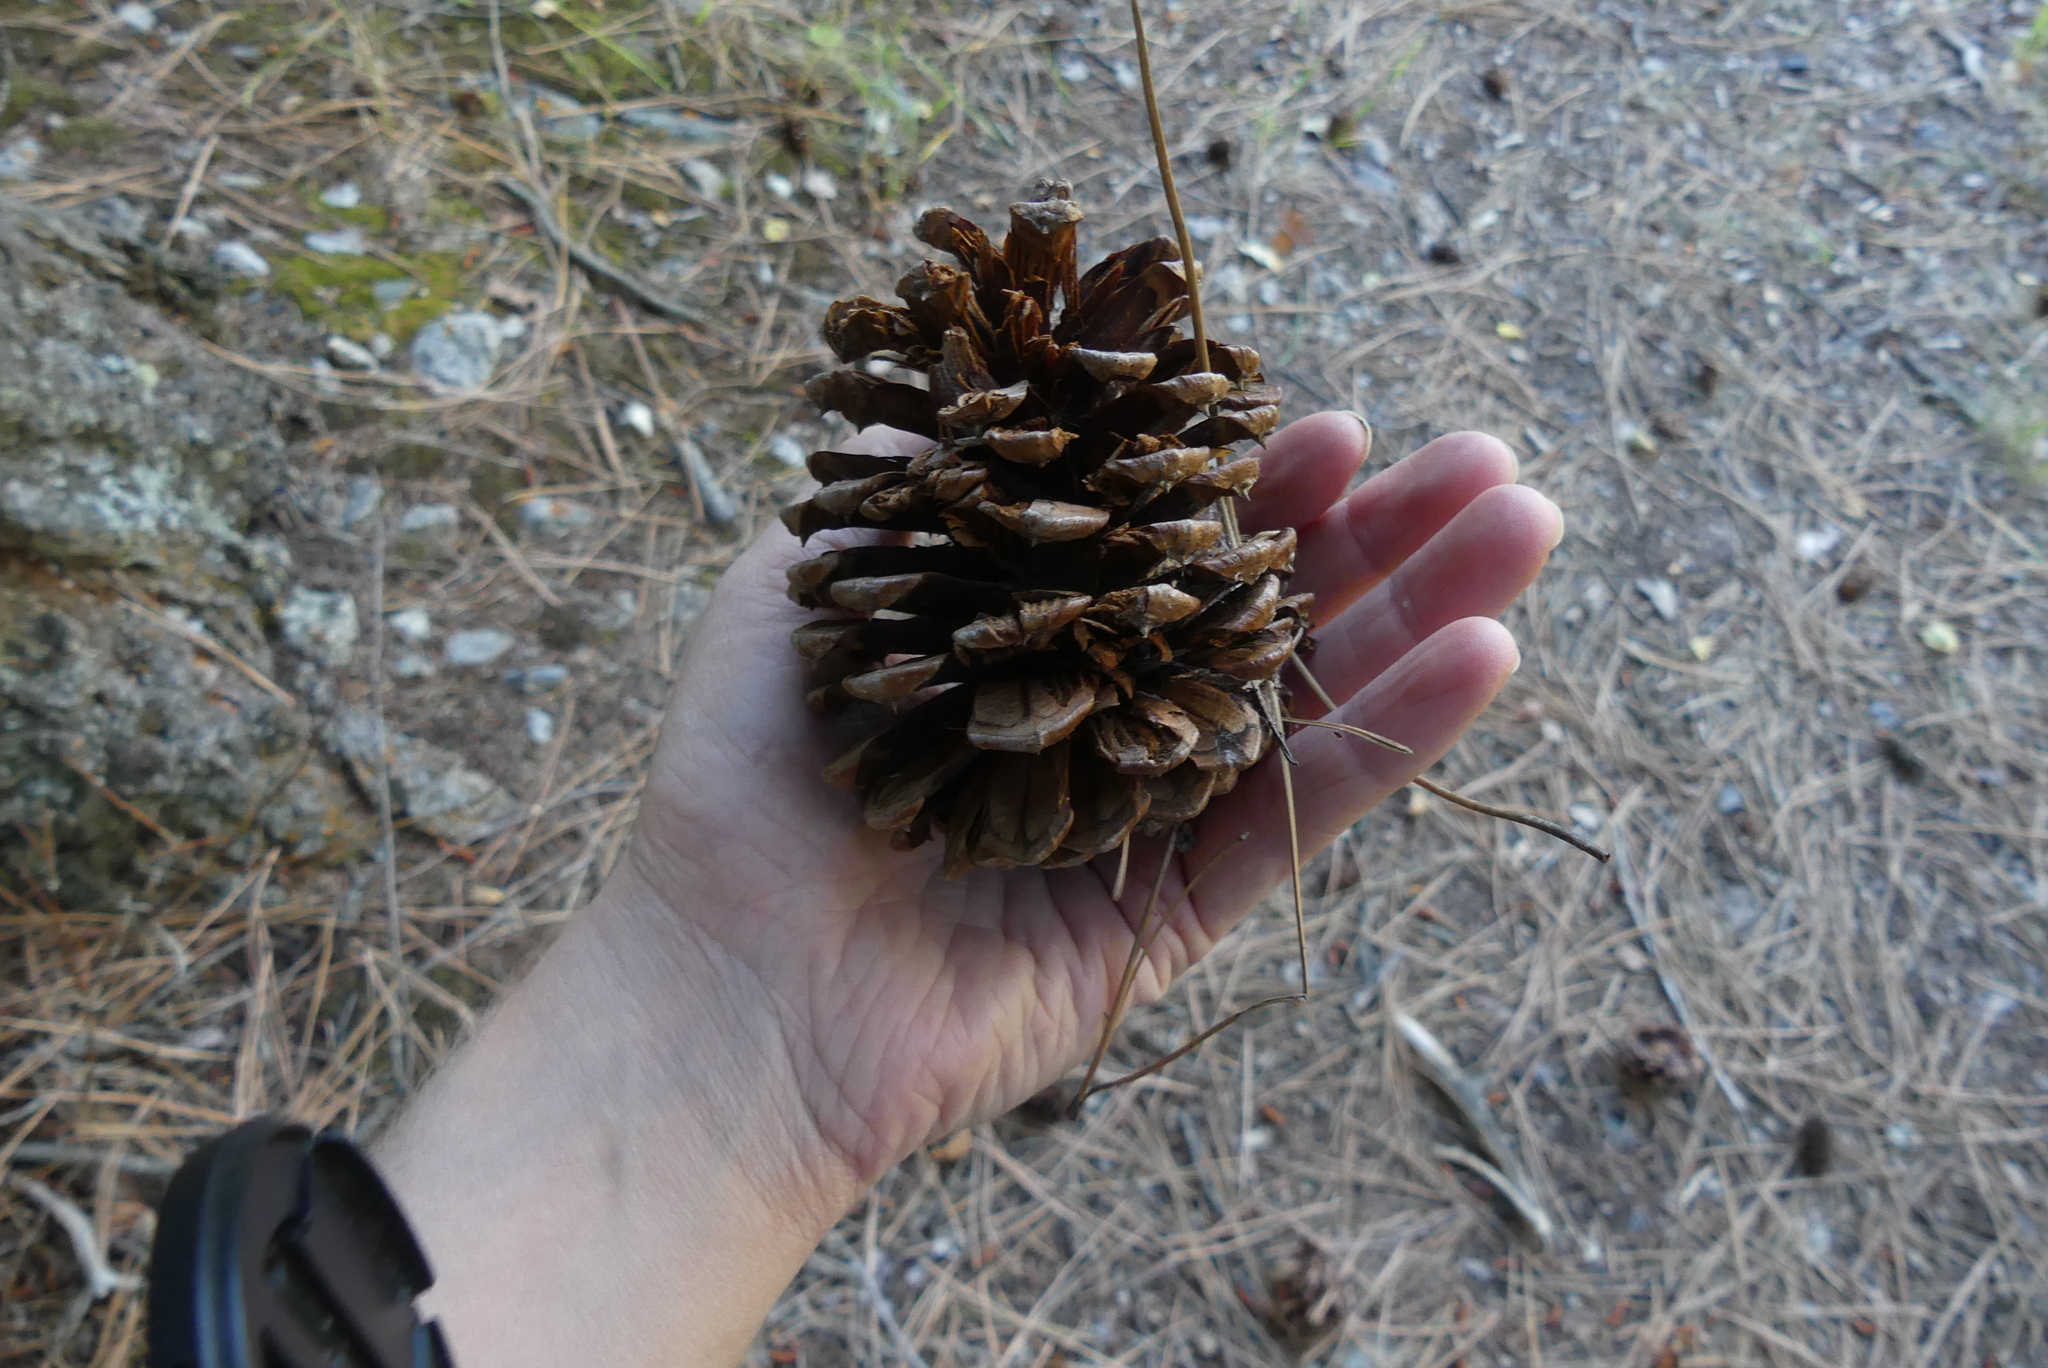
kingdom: Plantae
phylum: Tracheophyta
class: Pinopsida
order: Pinales
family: Pinaceae
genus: Pinus
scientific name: Pinus ponderosa
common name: Western yellow-pine
